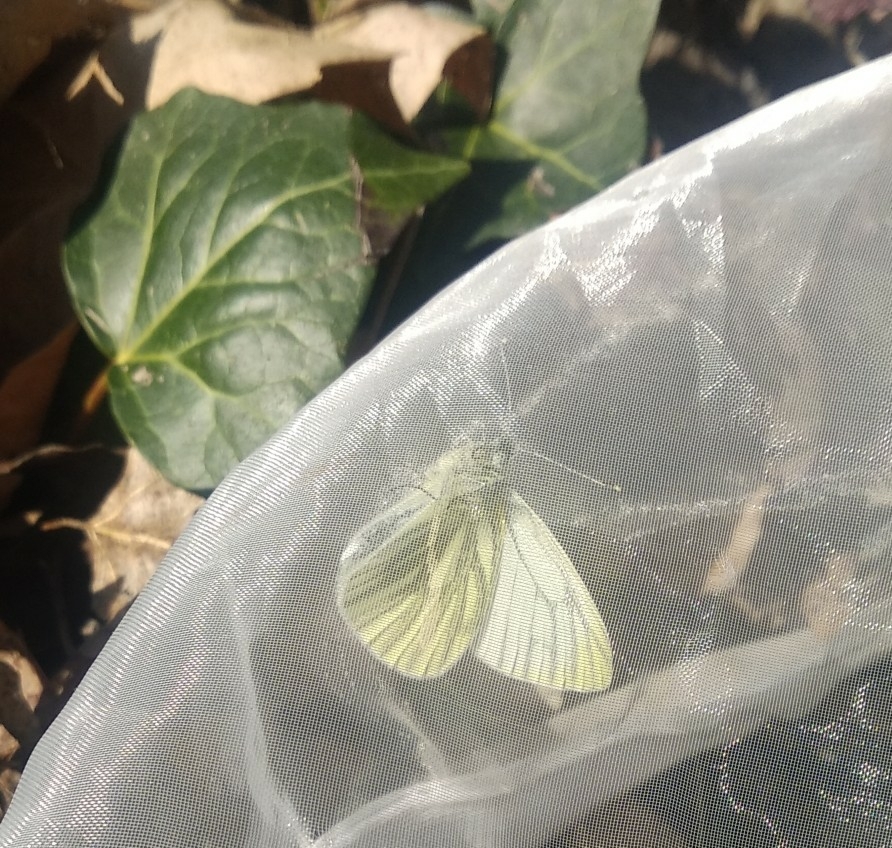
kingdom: Animalia
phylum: Arthropoda
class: Insecta
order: Lepidoptera
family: Pieridae
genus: Pieris
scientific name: Pieris napi
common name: Green-veined white
